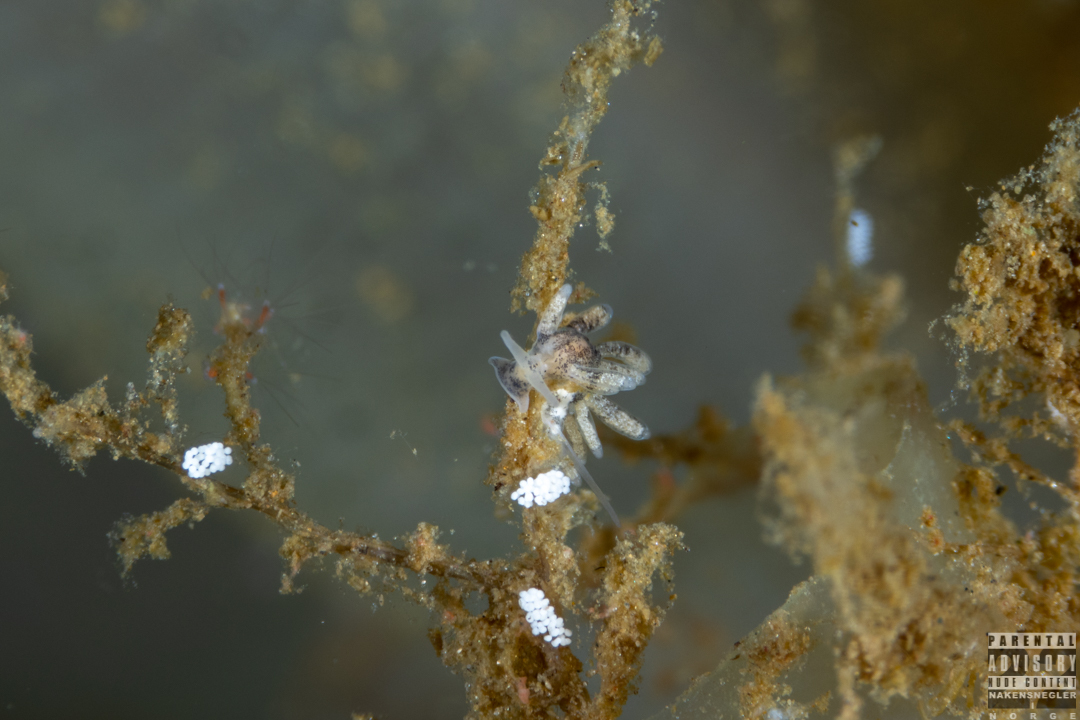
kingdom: Animalia
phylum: Mollusca
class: Gastropoda
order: Nudibranchia
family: Trinchesiidae
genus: Tenellia
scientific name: Tenellia adspersa
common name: Lagoon sea slug
